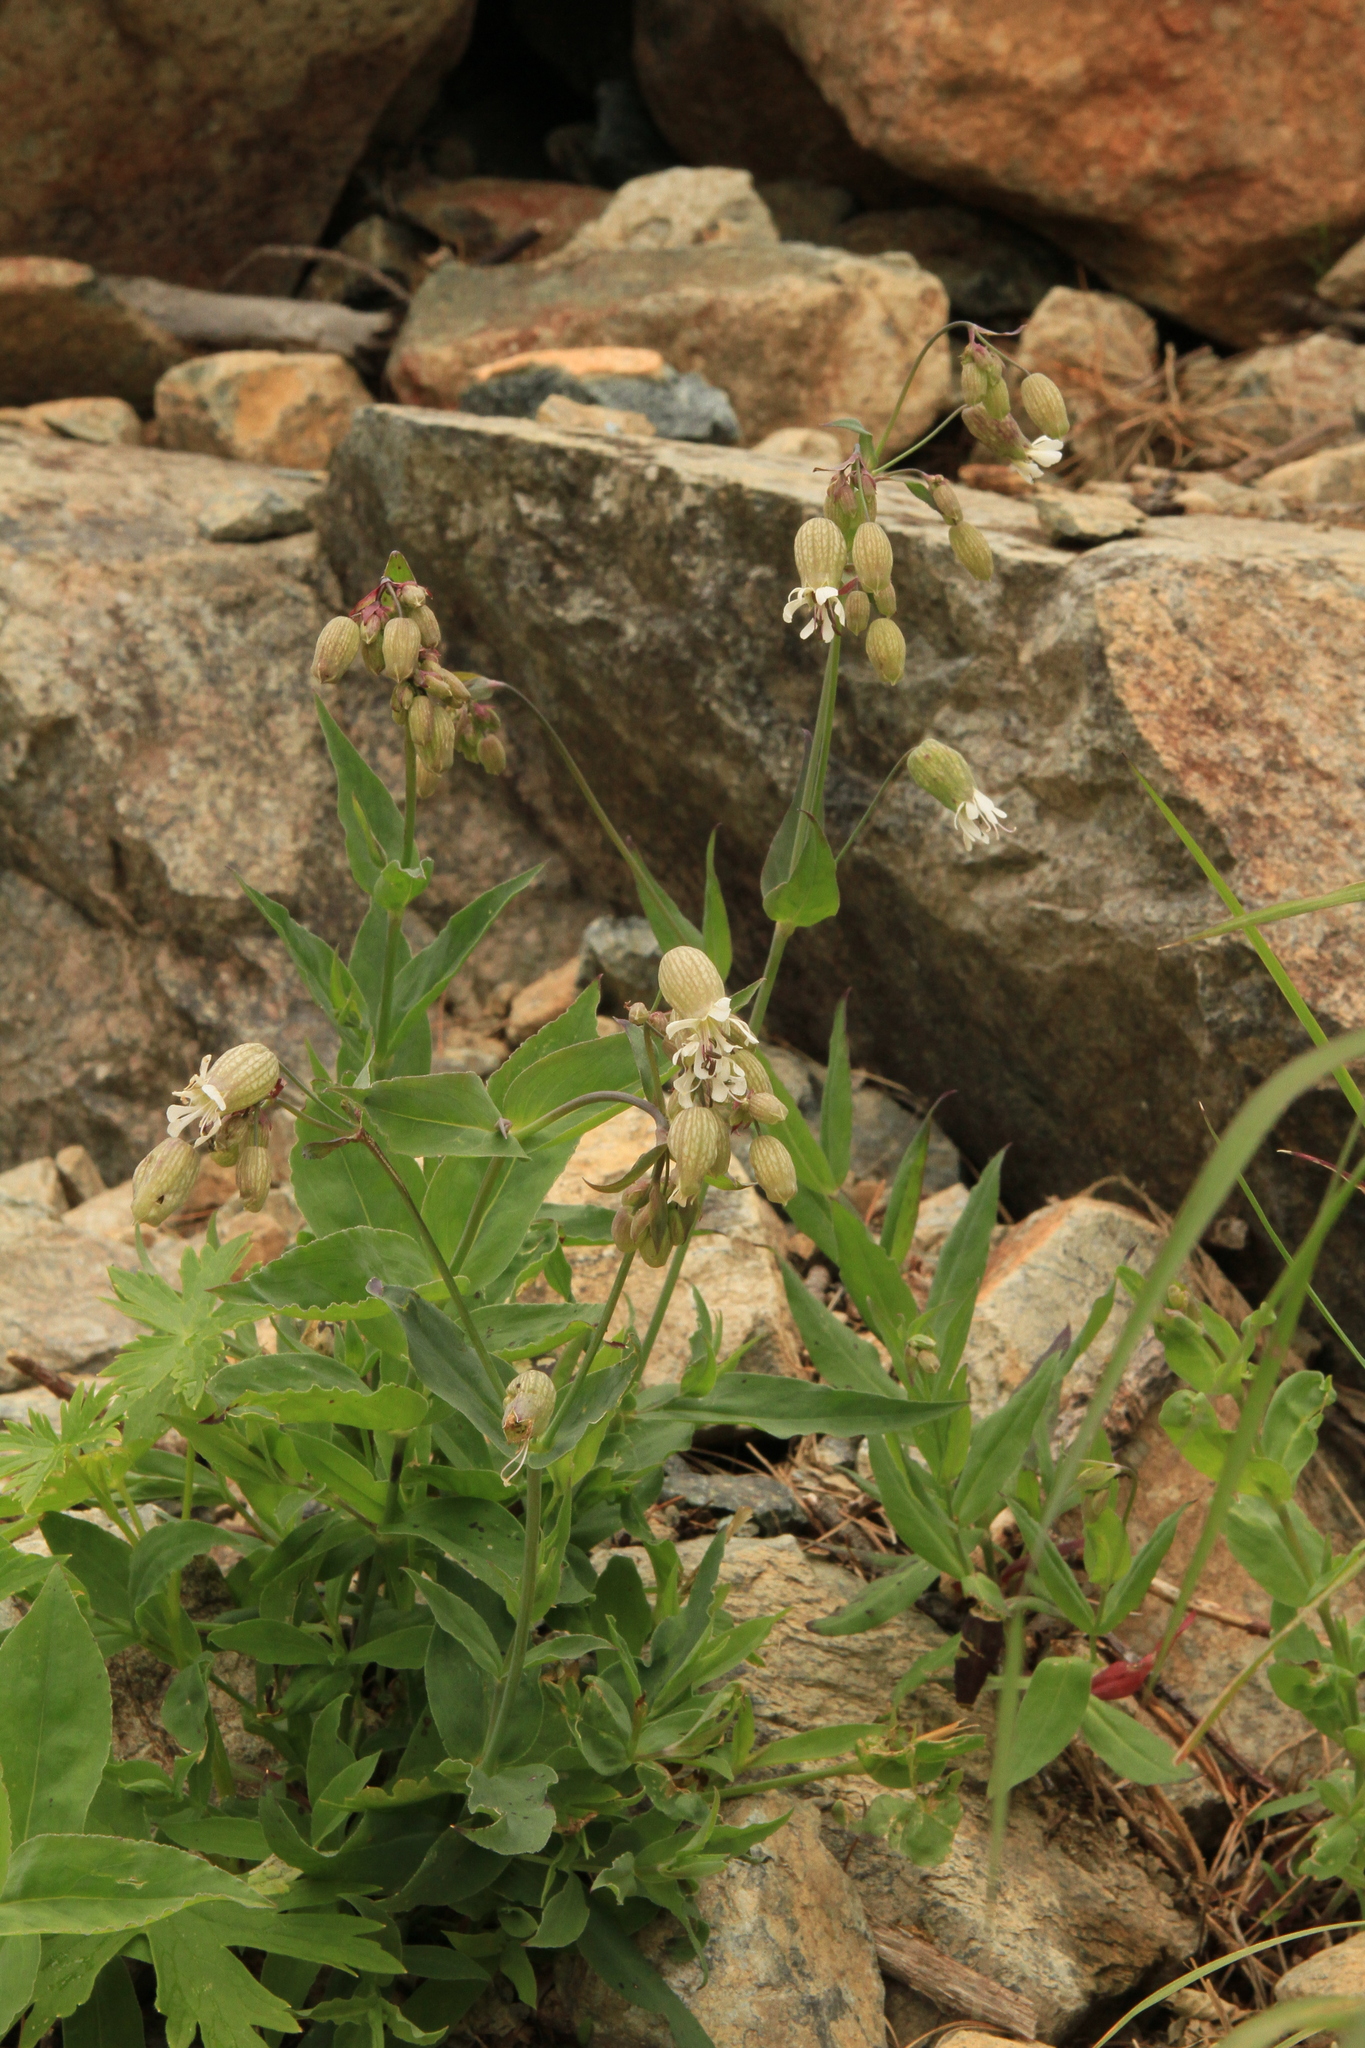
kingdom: Plantae
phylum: Tracheophyta
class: Magnoliopsida
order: Caryophyllales
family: Caryophyllaceae
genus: Silene
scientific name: Silene vulgaris
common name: Bladder campion
